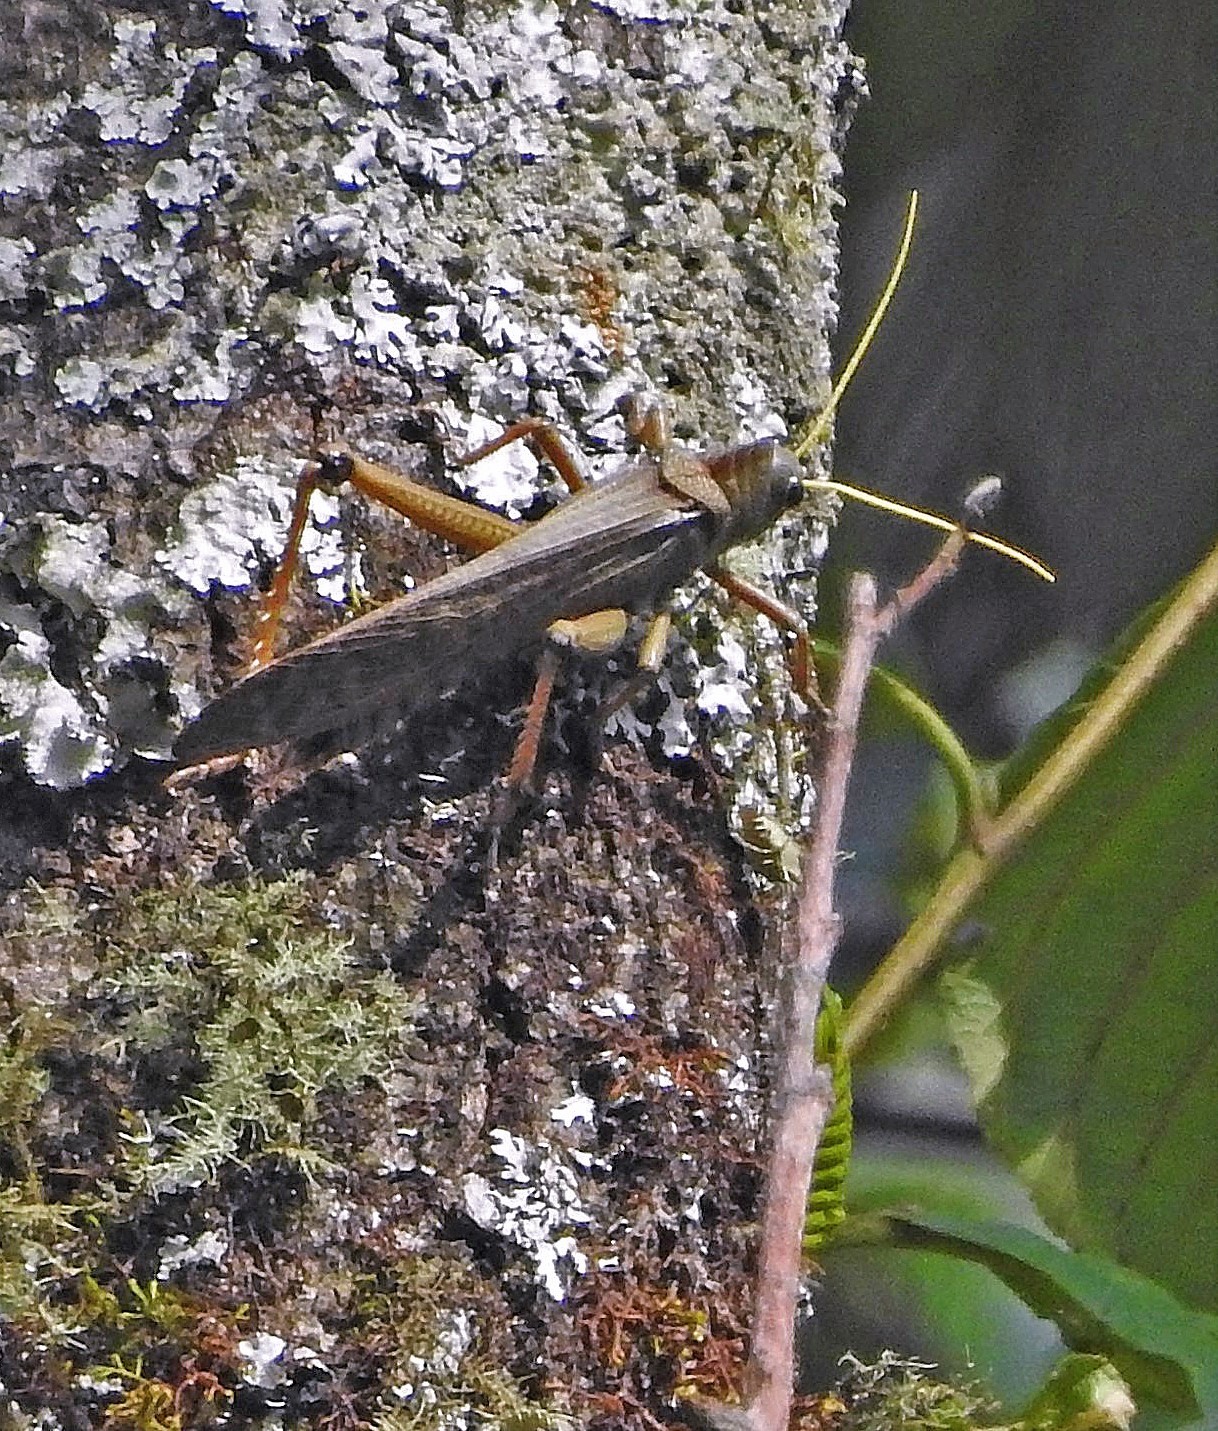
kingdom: Animalia
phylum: Arthropoda
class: Insecta
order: Orthoptera
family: Romaleidae
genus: Tropidacris
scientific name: Tropidacris collaris
